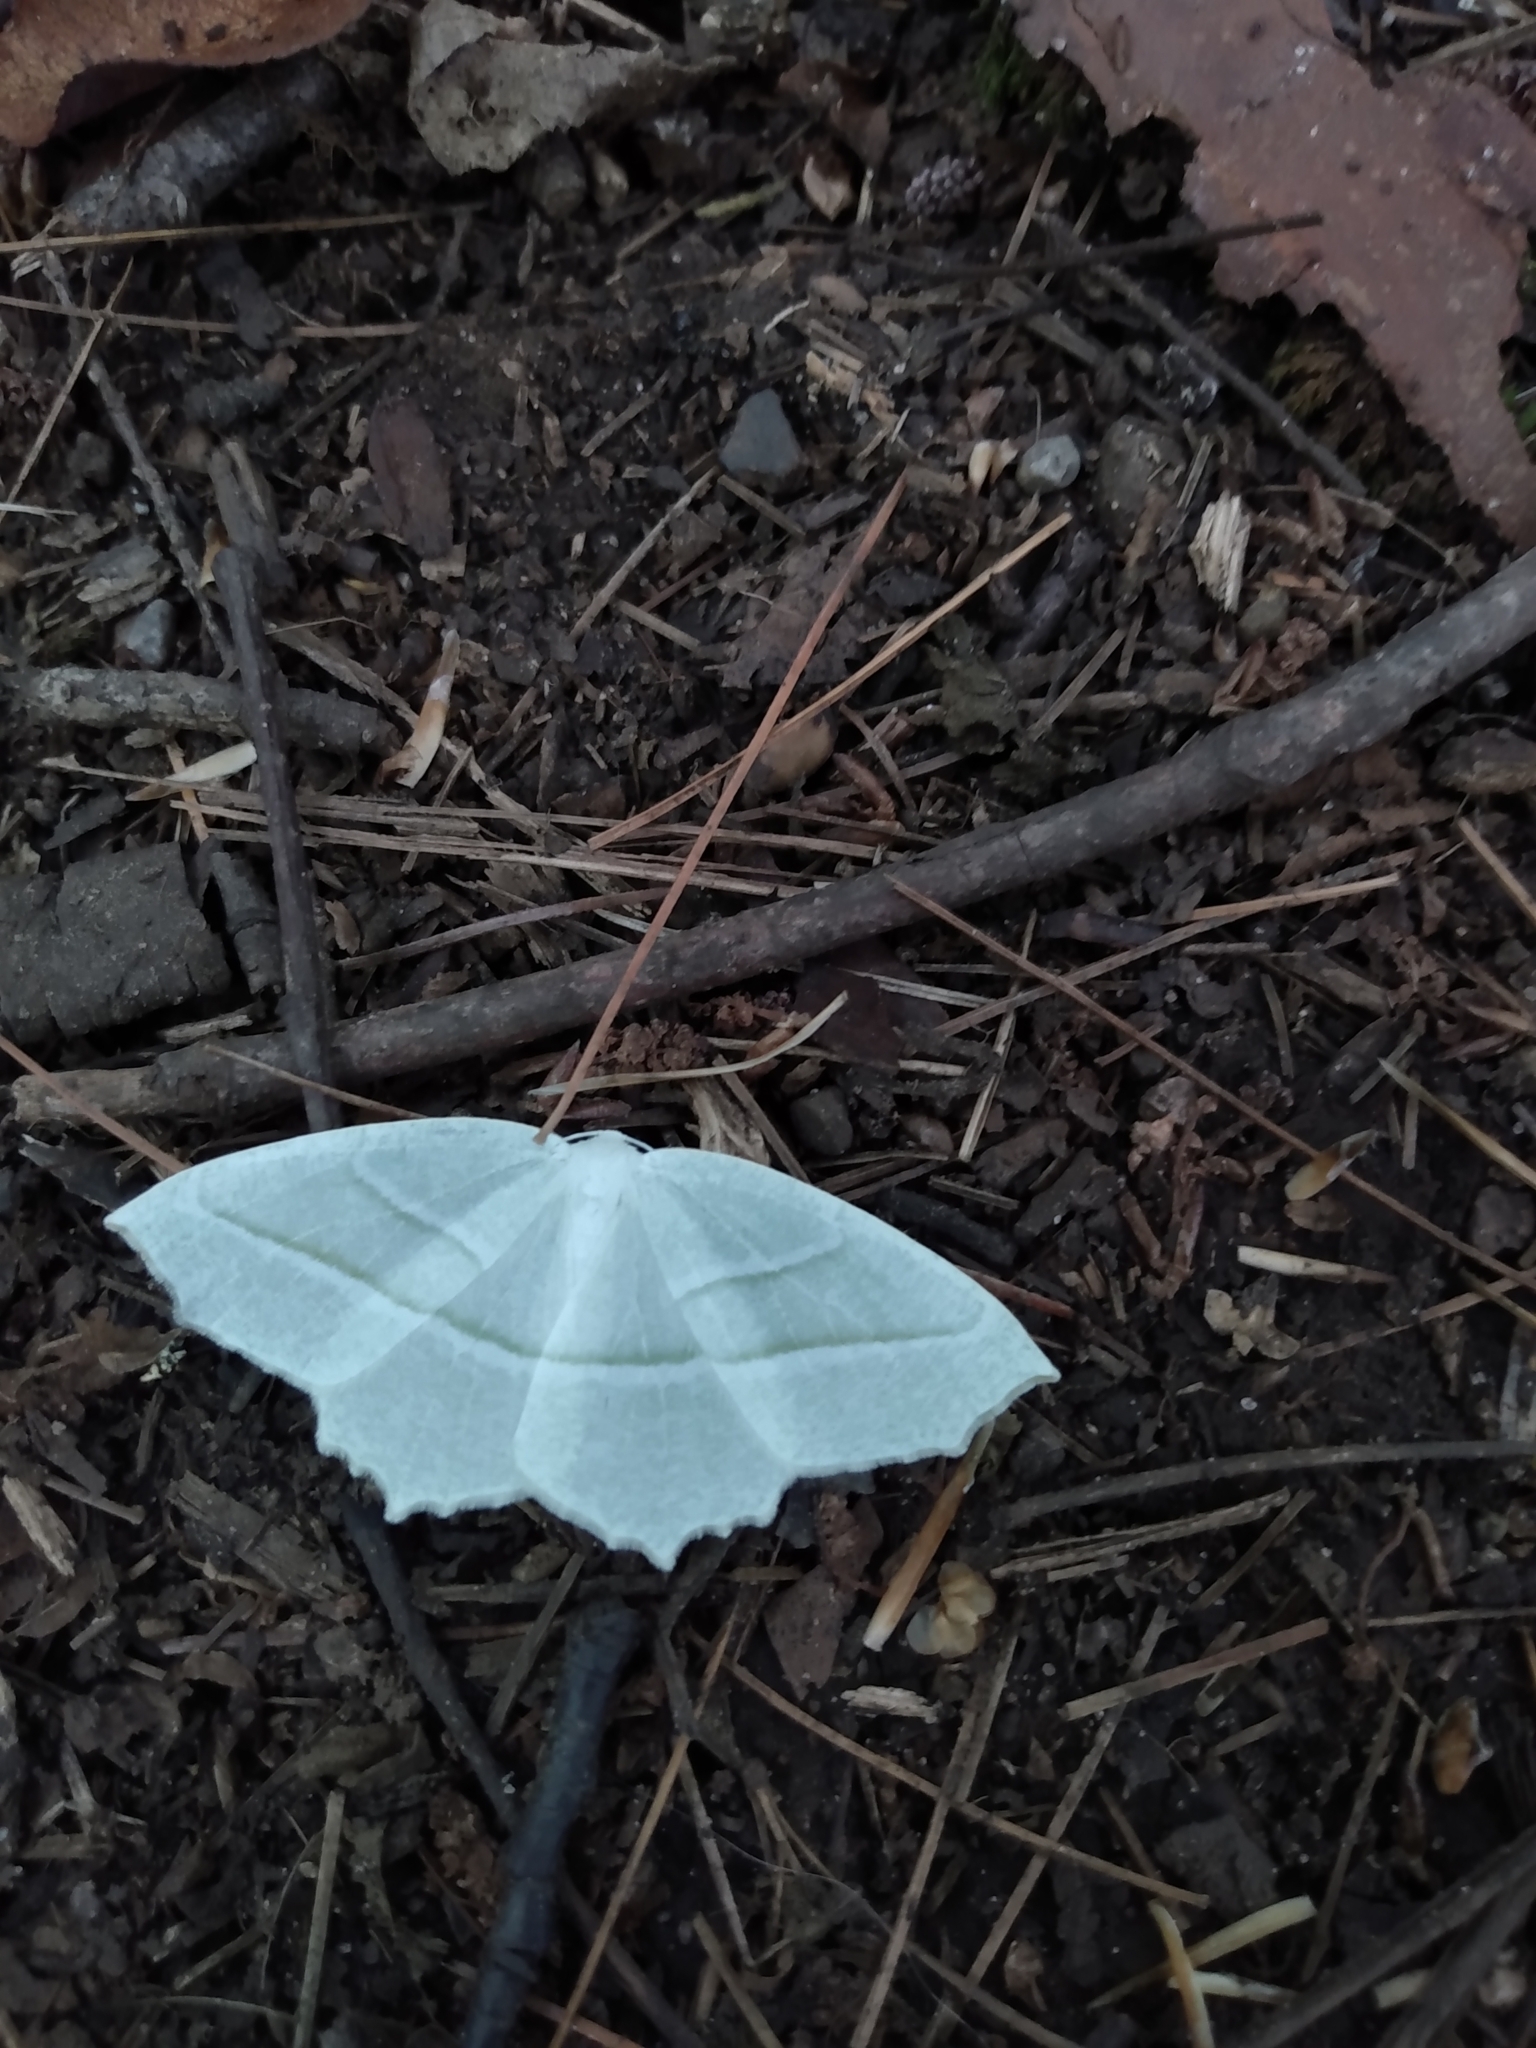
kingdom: Animalia
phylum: Arthropoda
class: Insecta
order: Lepidoptera
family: Geometridae
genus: Campaea
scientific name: Campaea perlata
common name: Fringed looper
